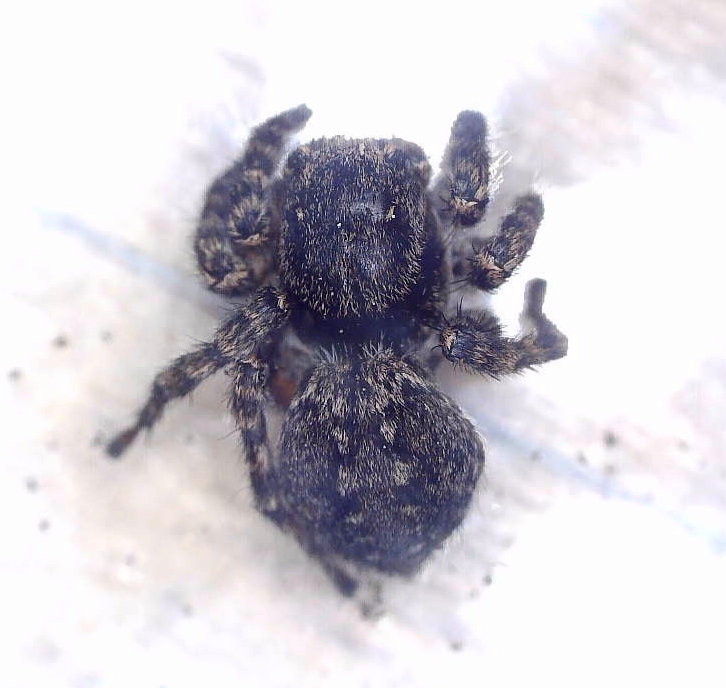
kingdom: Animalia
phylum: Arthropoda
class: Arachnida
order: Araneae
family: Salticidae
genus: Aelurillus
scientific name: Aelurillus v-insignitus
